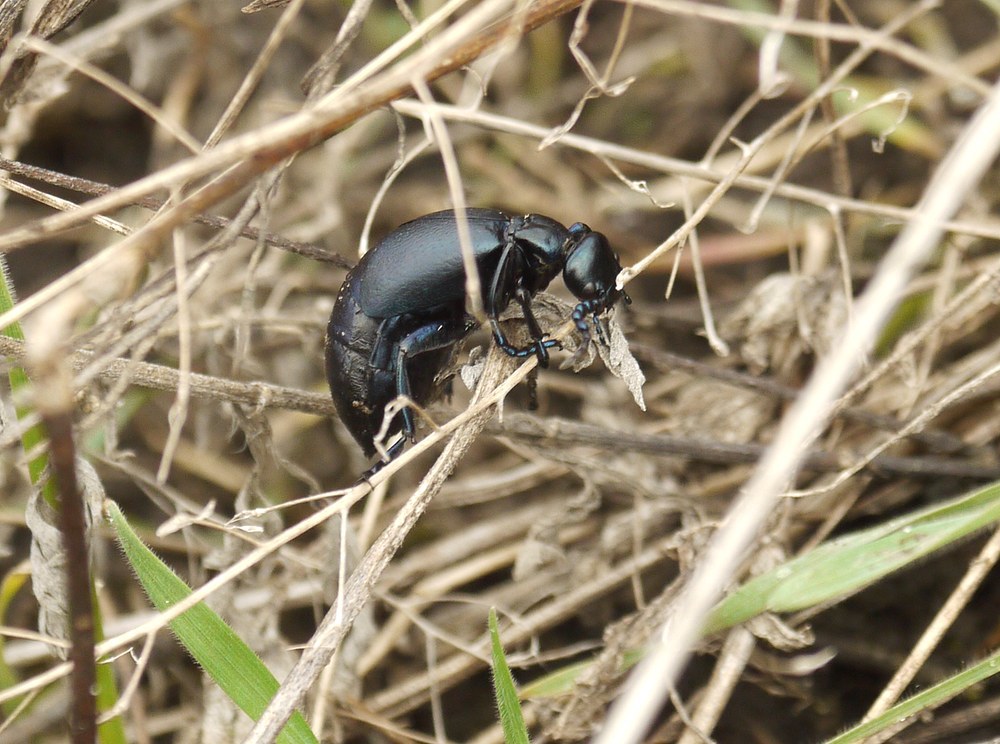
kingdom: Animalia
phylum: Arthropoda
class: Insecta
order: Coleoptera
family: Meloidae
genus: Meloe
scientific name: Meloe autumnalis
